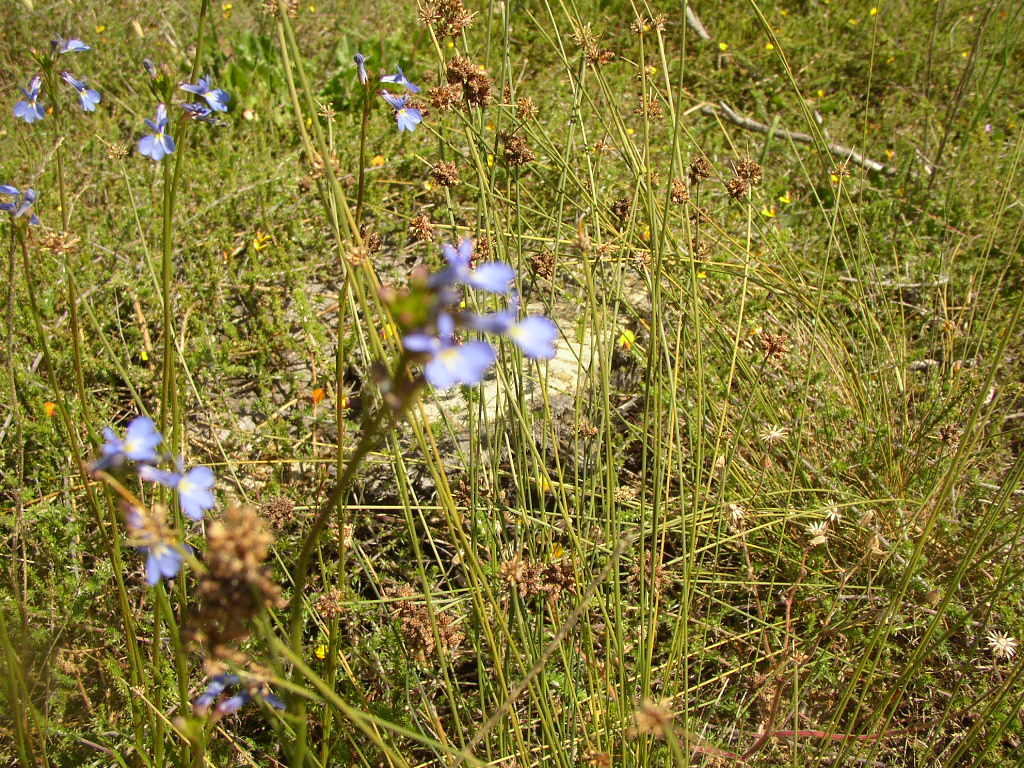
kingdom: Plantae
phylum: Tracheophyta
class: Liliopsida
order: Poales
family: Cyperaceae
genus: Ficinia
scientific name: Ficinia bulbosa
